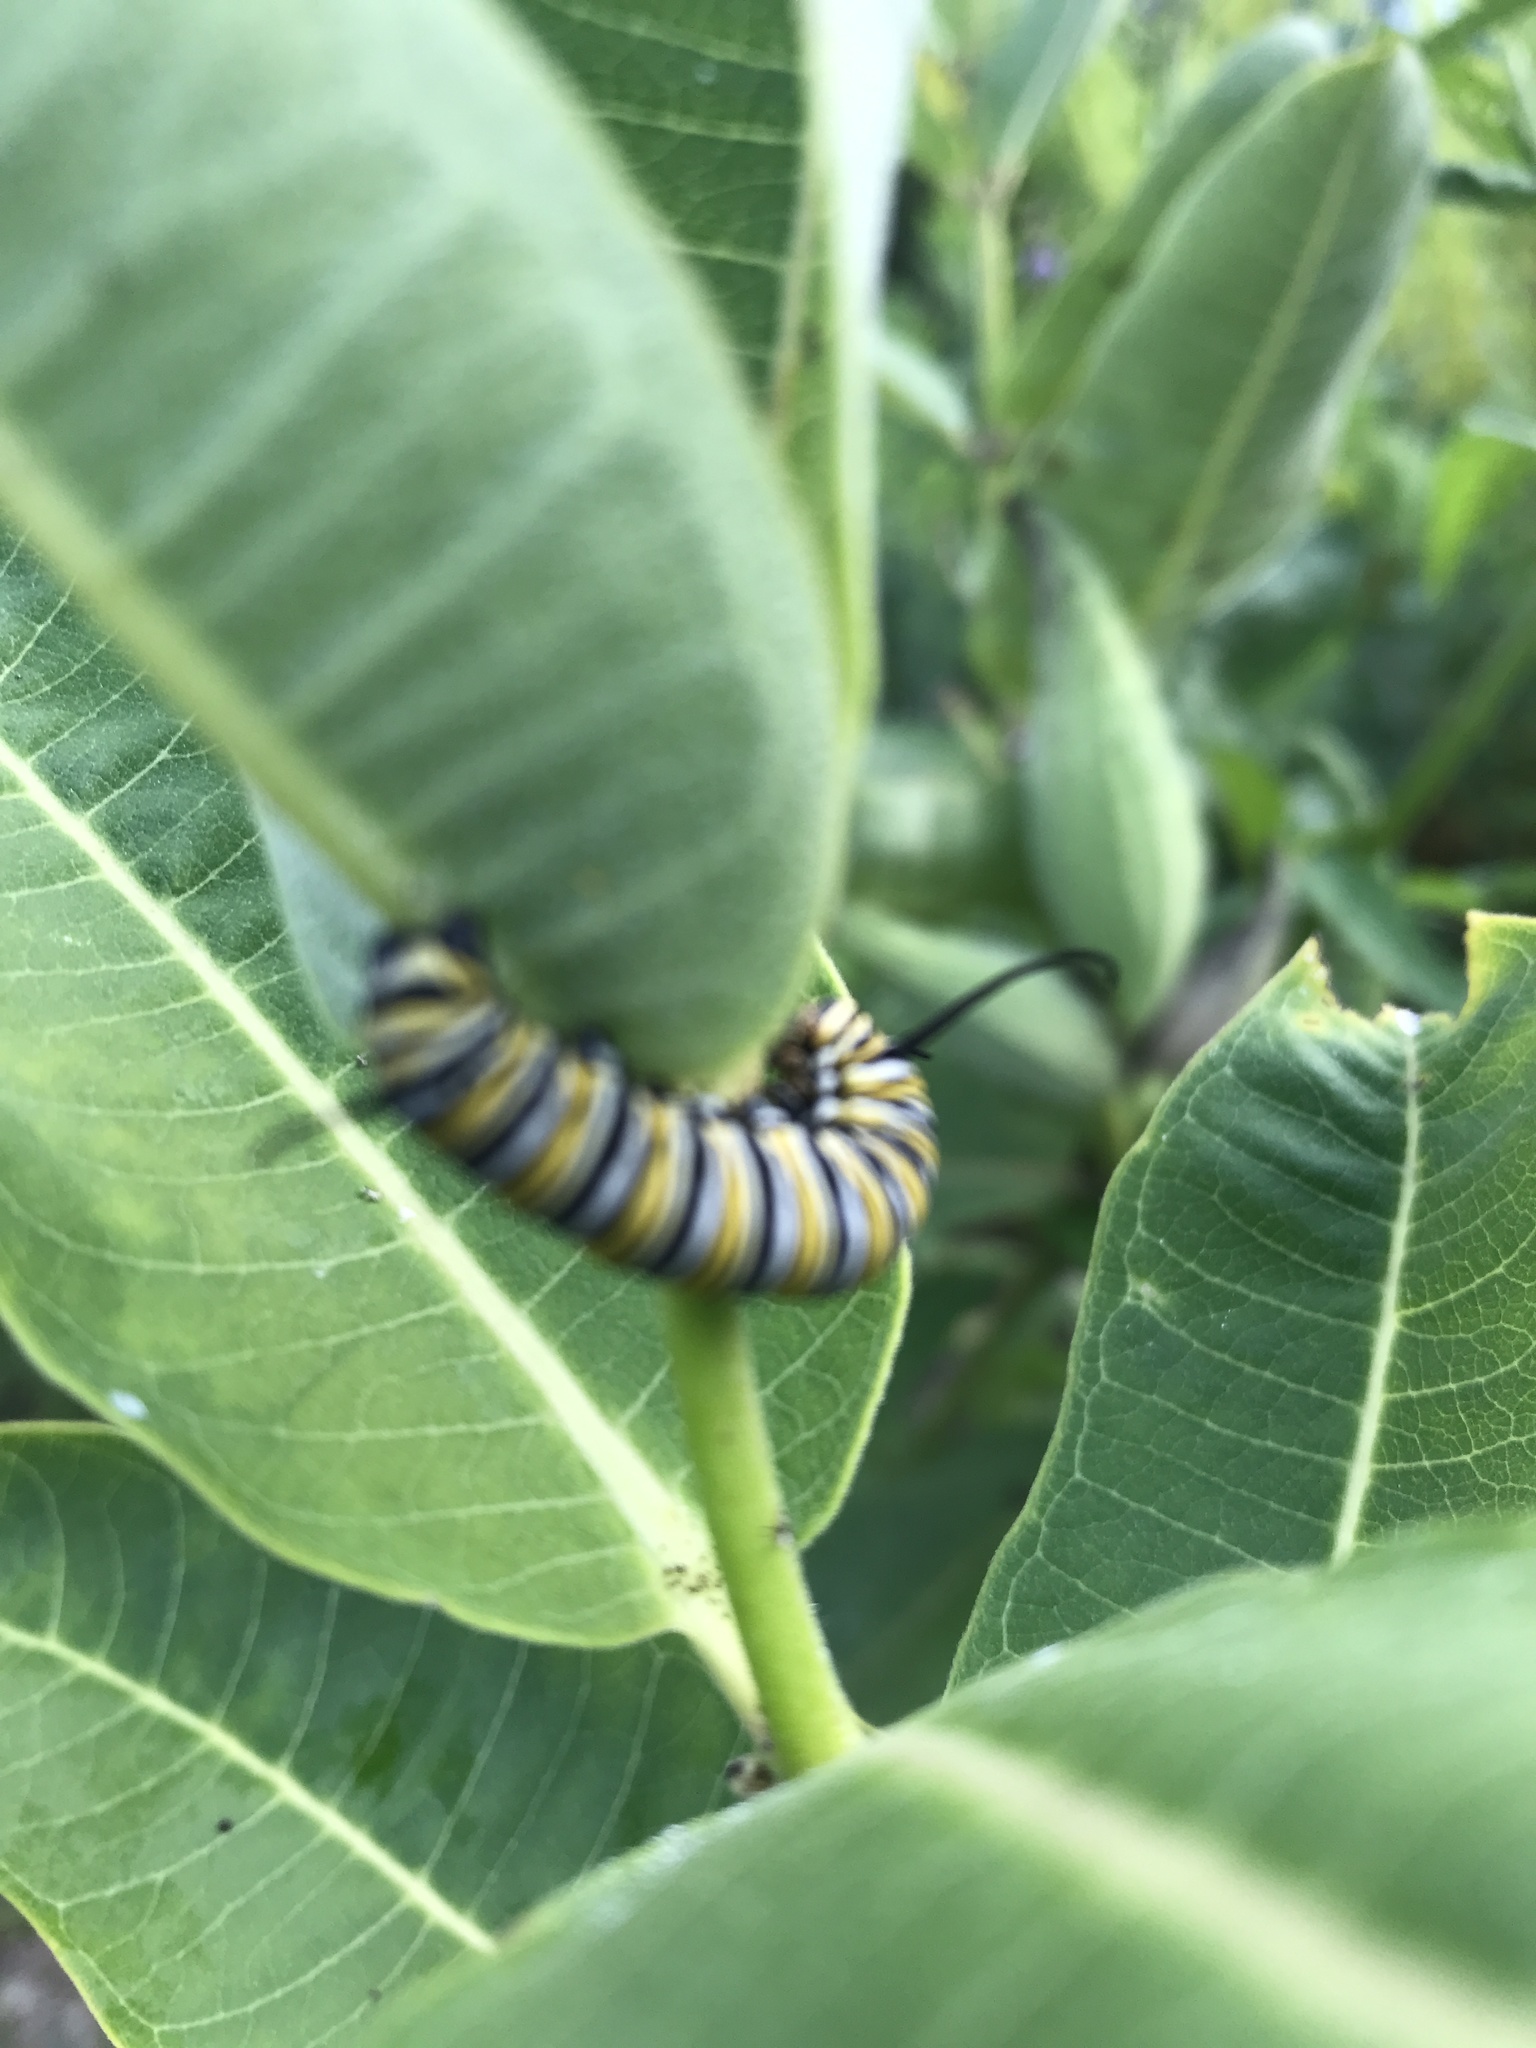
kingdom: Animalia
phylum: Arthropoda
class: Insecta
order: Lepidoptera
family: Nymphalidae
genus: Danaus
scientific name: Danaus plexippus
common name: Monarch
